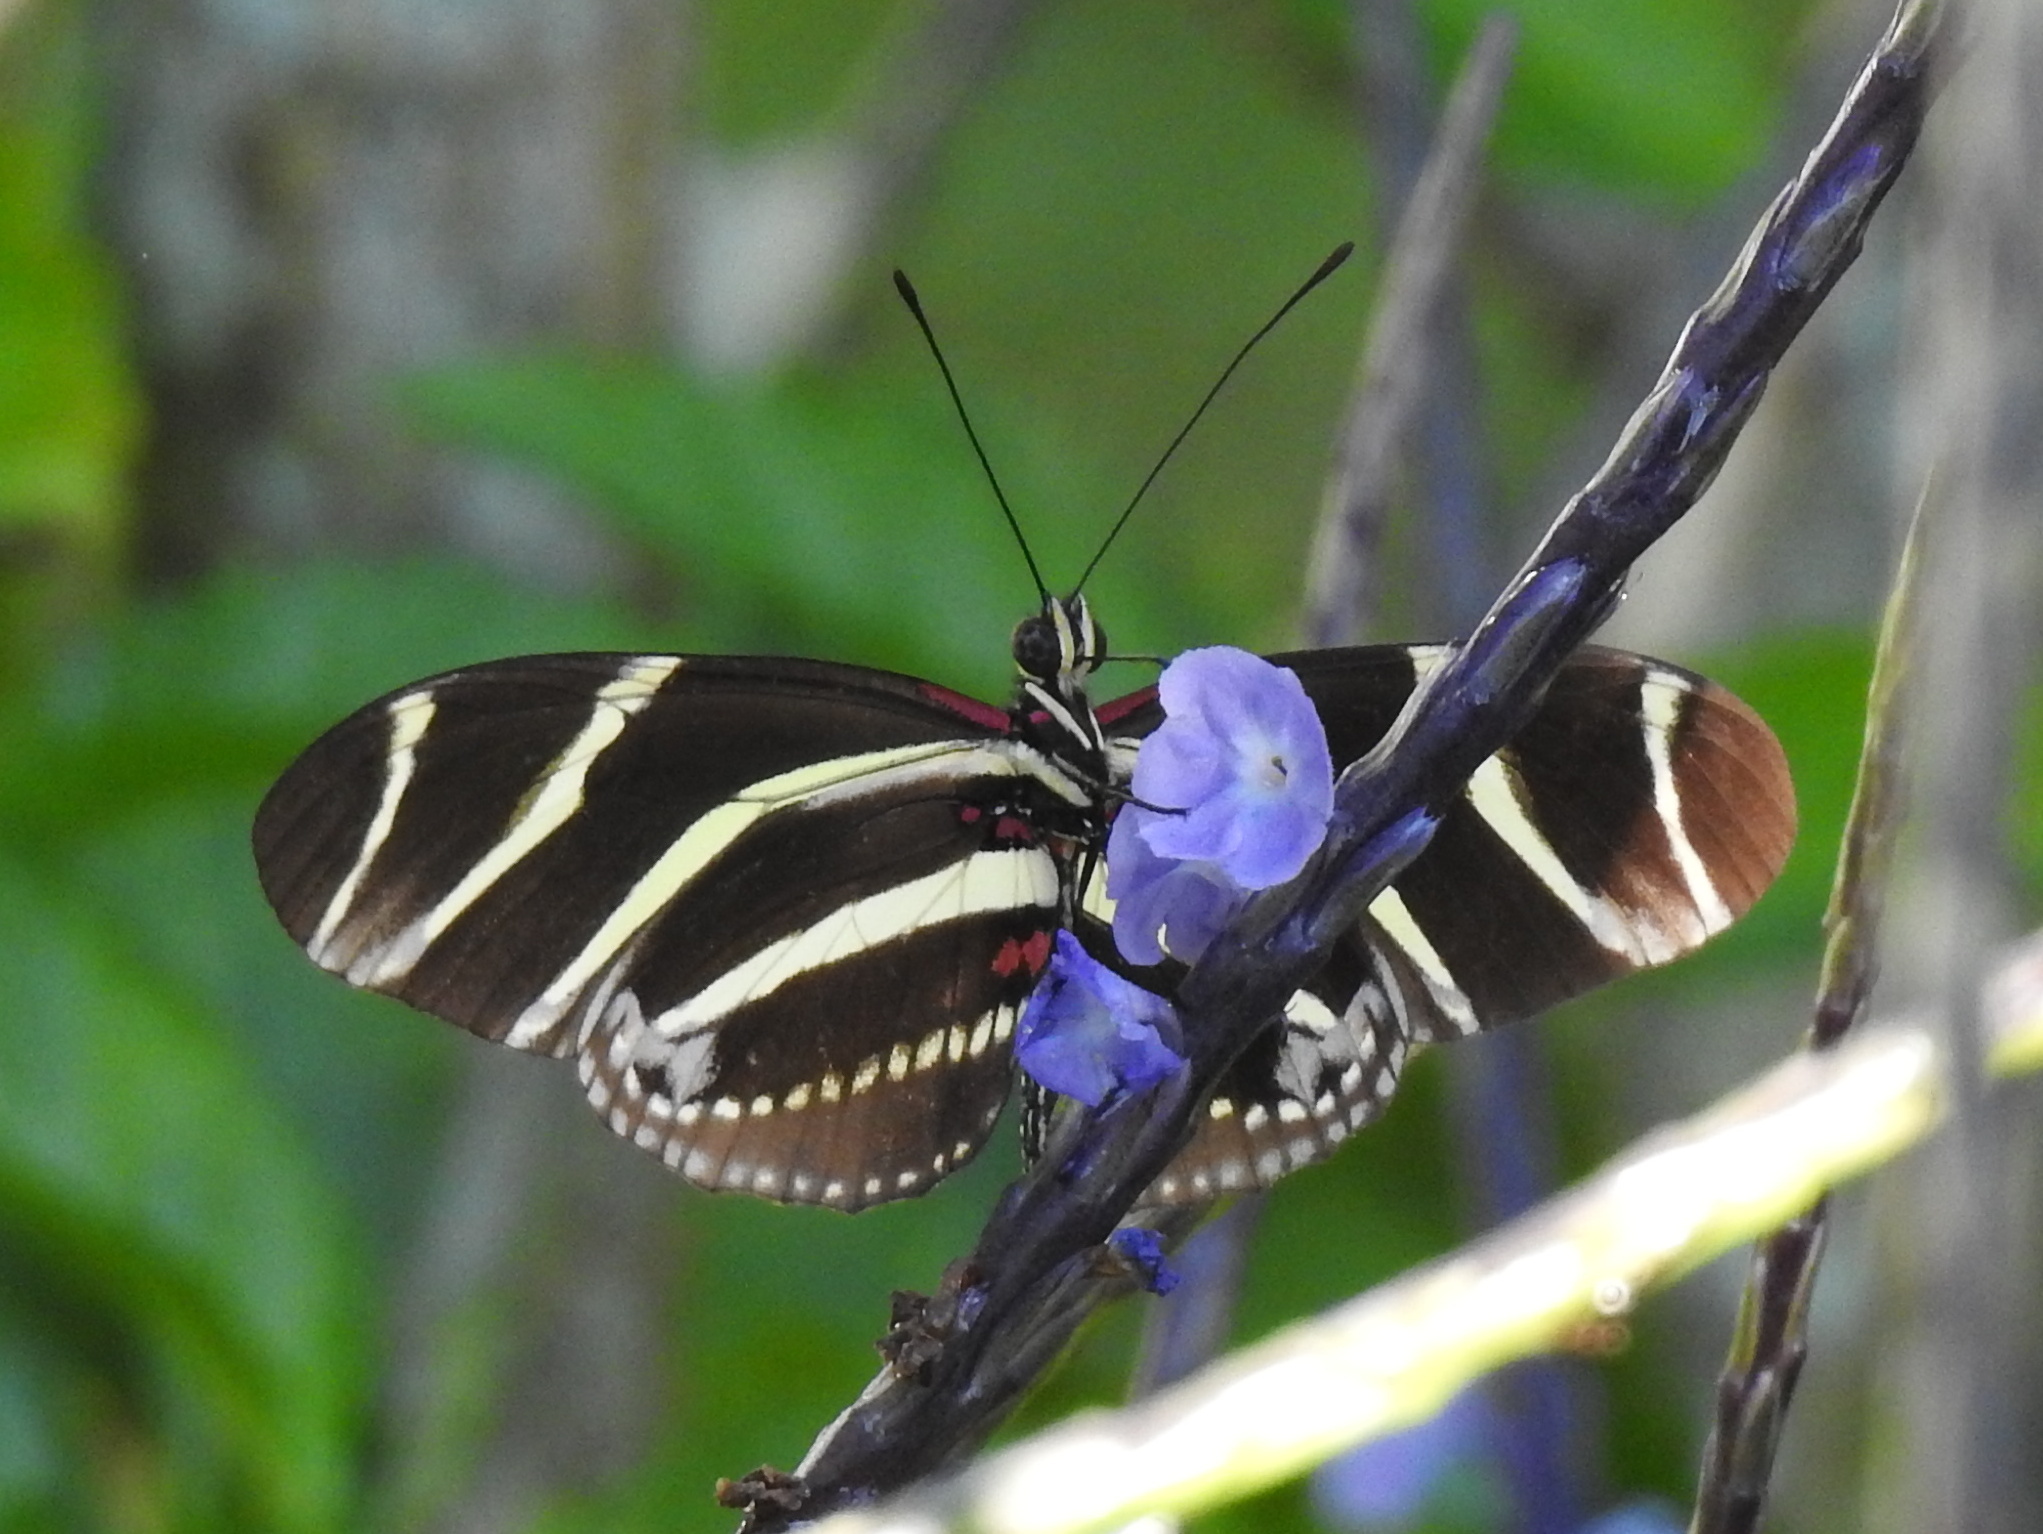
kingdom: Animalia
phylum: Arthropoda
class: Insecta
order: Lepidoptera
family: Nymphalidae
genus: Heliconius
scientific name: Heliconius charithonia
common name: Zebra long wing
